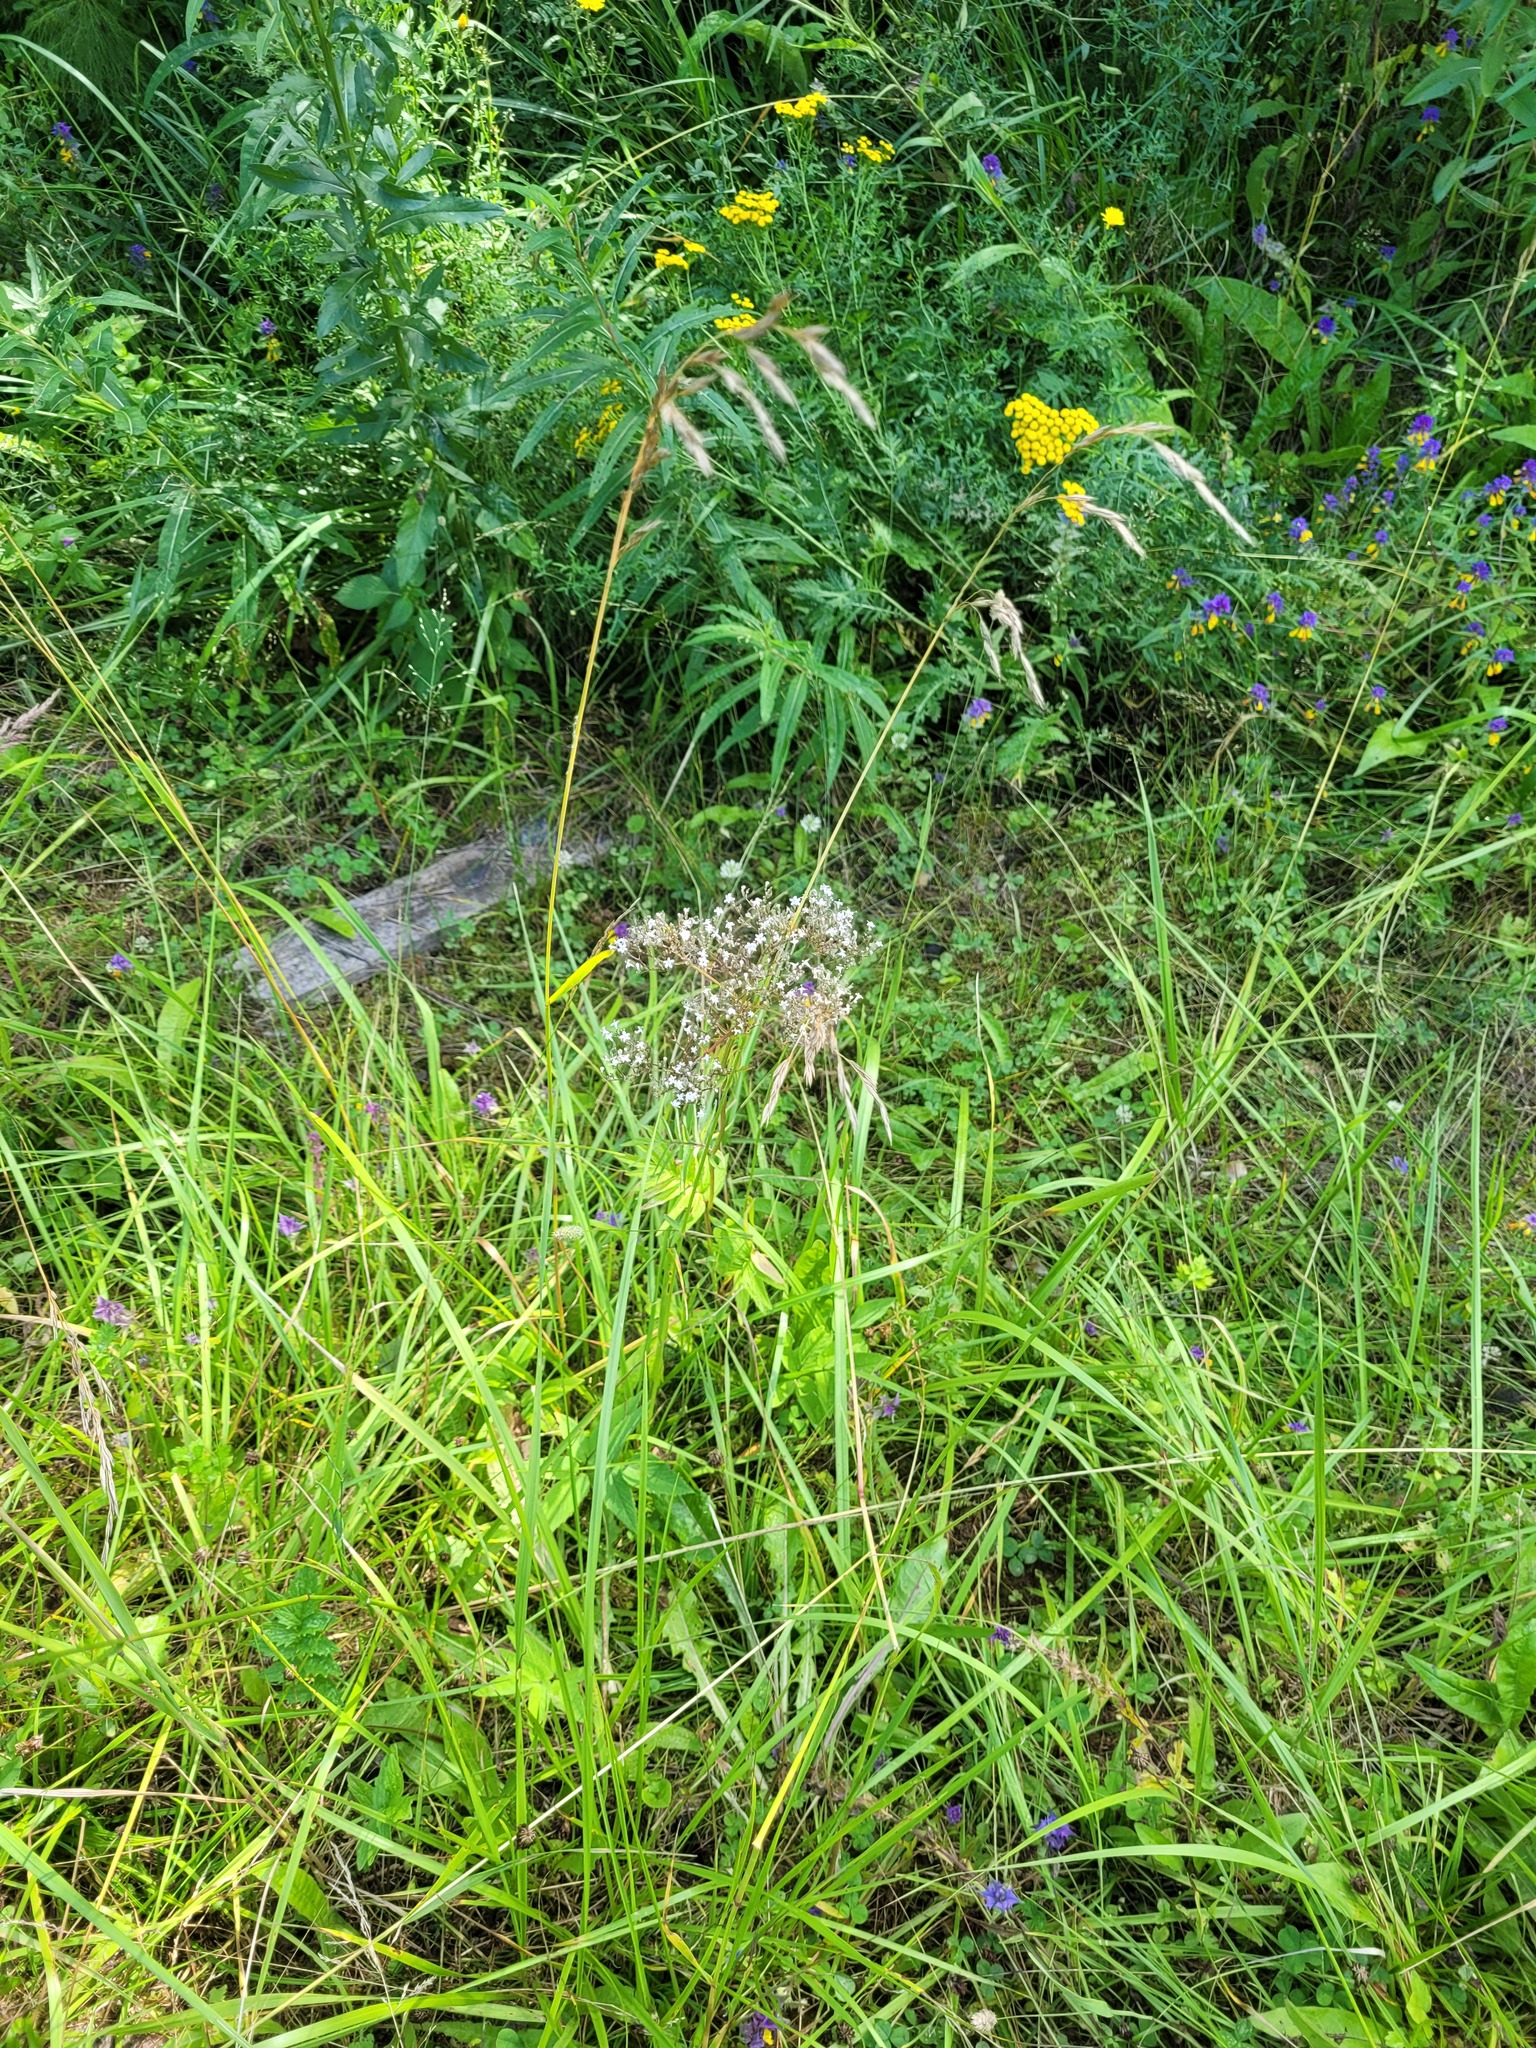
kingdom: Plantae
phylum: Tracheophyta
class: Magnoliopsida
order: Dipsacales
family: Caprifoliaceae
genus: Valeriana
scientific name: Valeriana officinalis
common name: Common valerian
